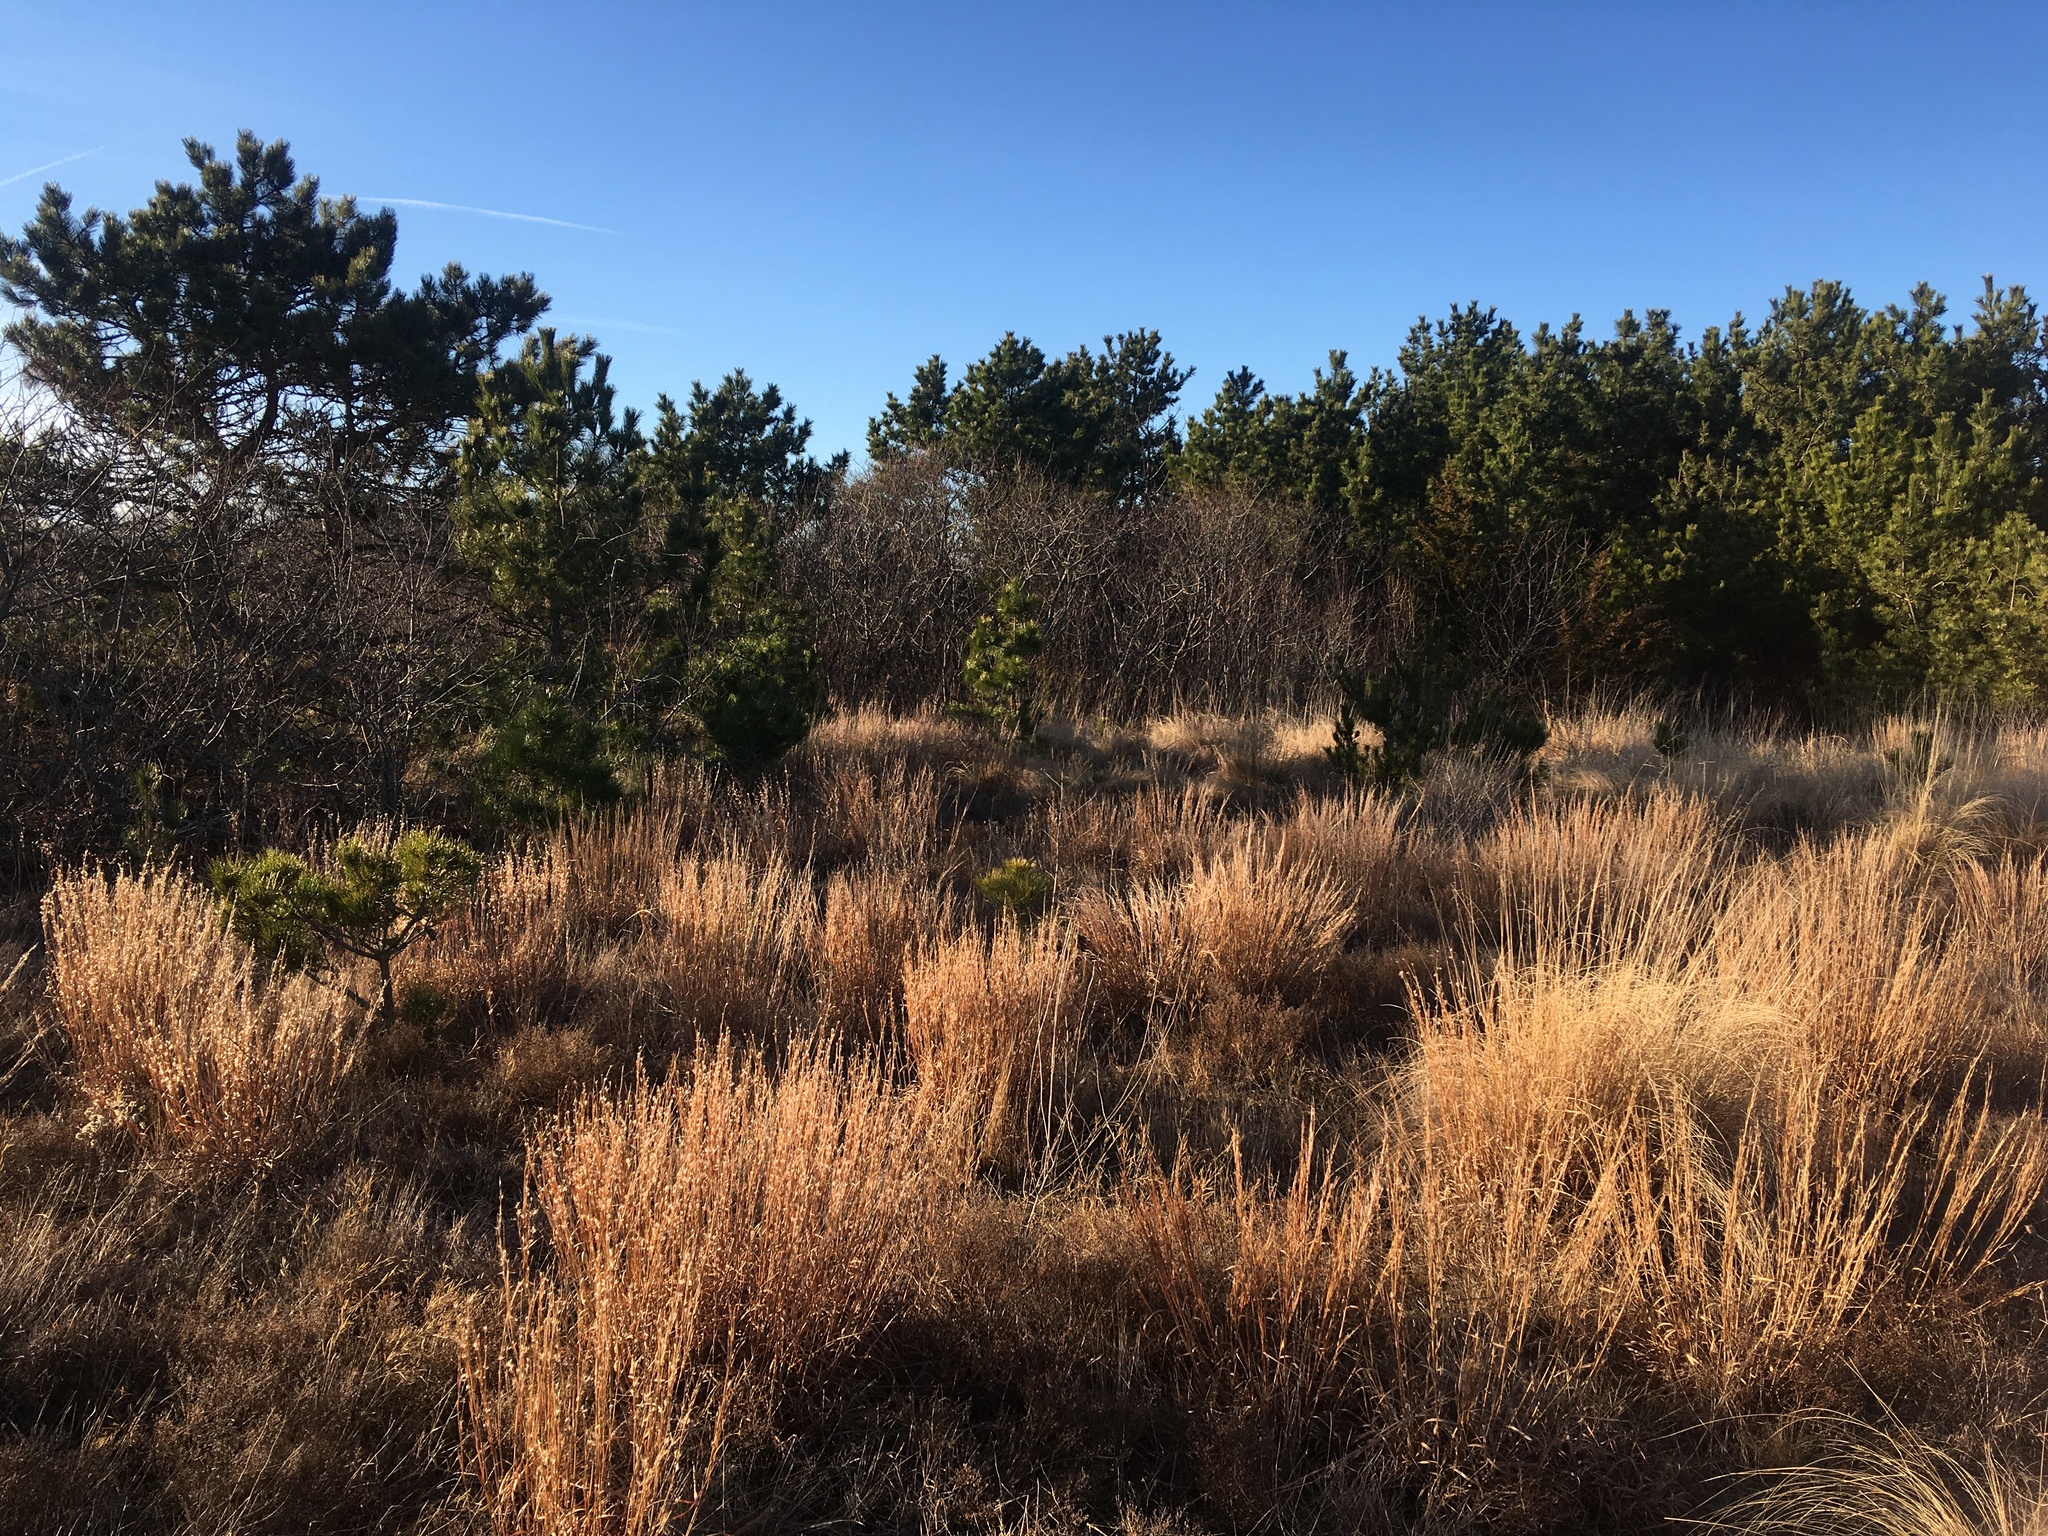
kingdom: Plantae
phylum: Tracheophyta
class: Pinopsida
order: Pinales
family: Pinaceae
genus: Pinus
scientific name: Pinus resinosa
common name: Norway pine
